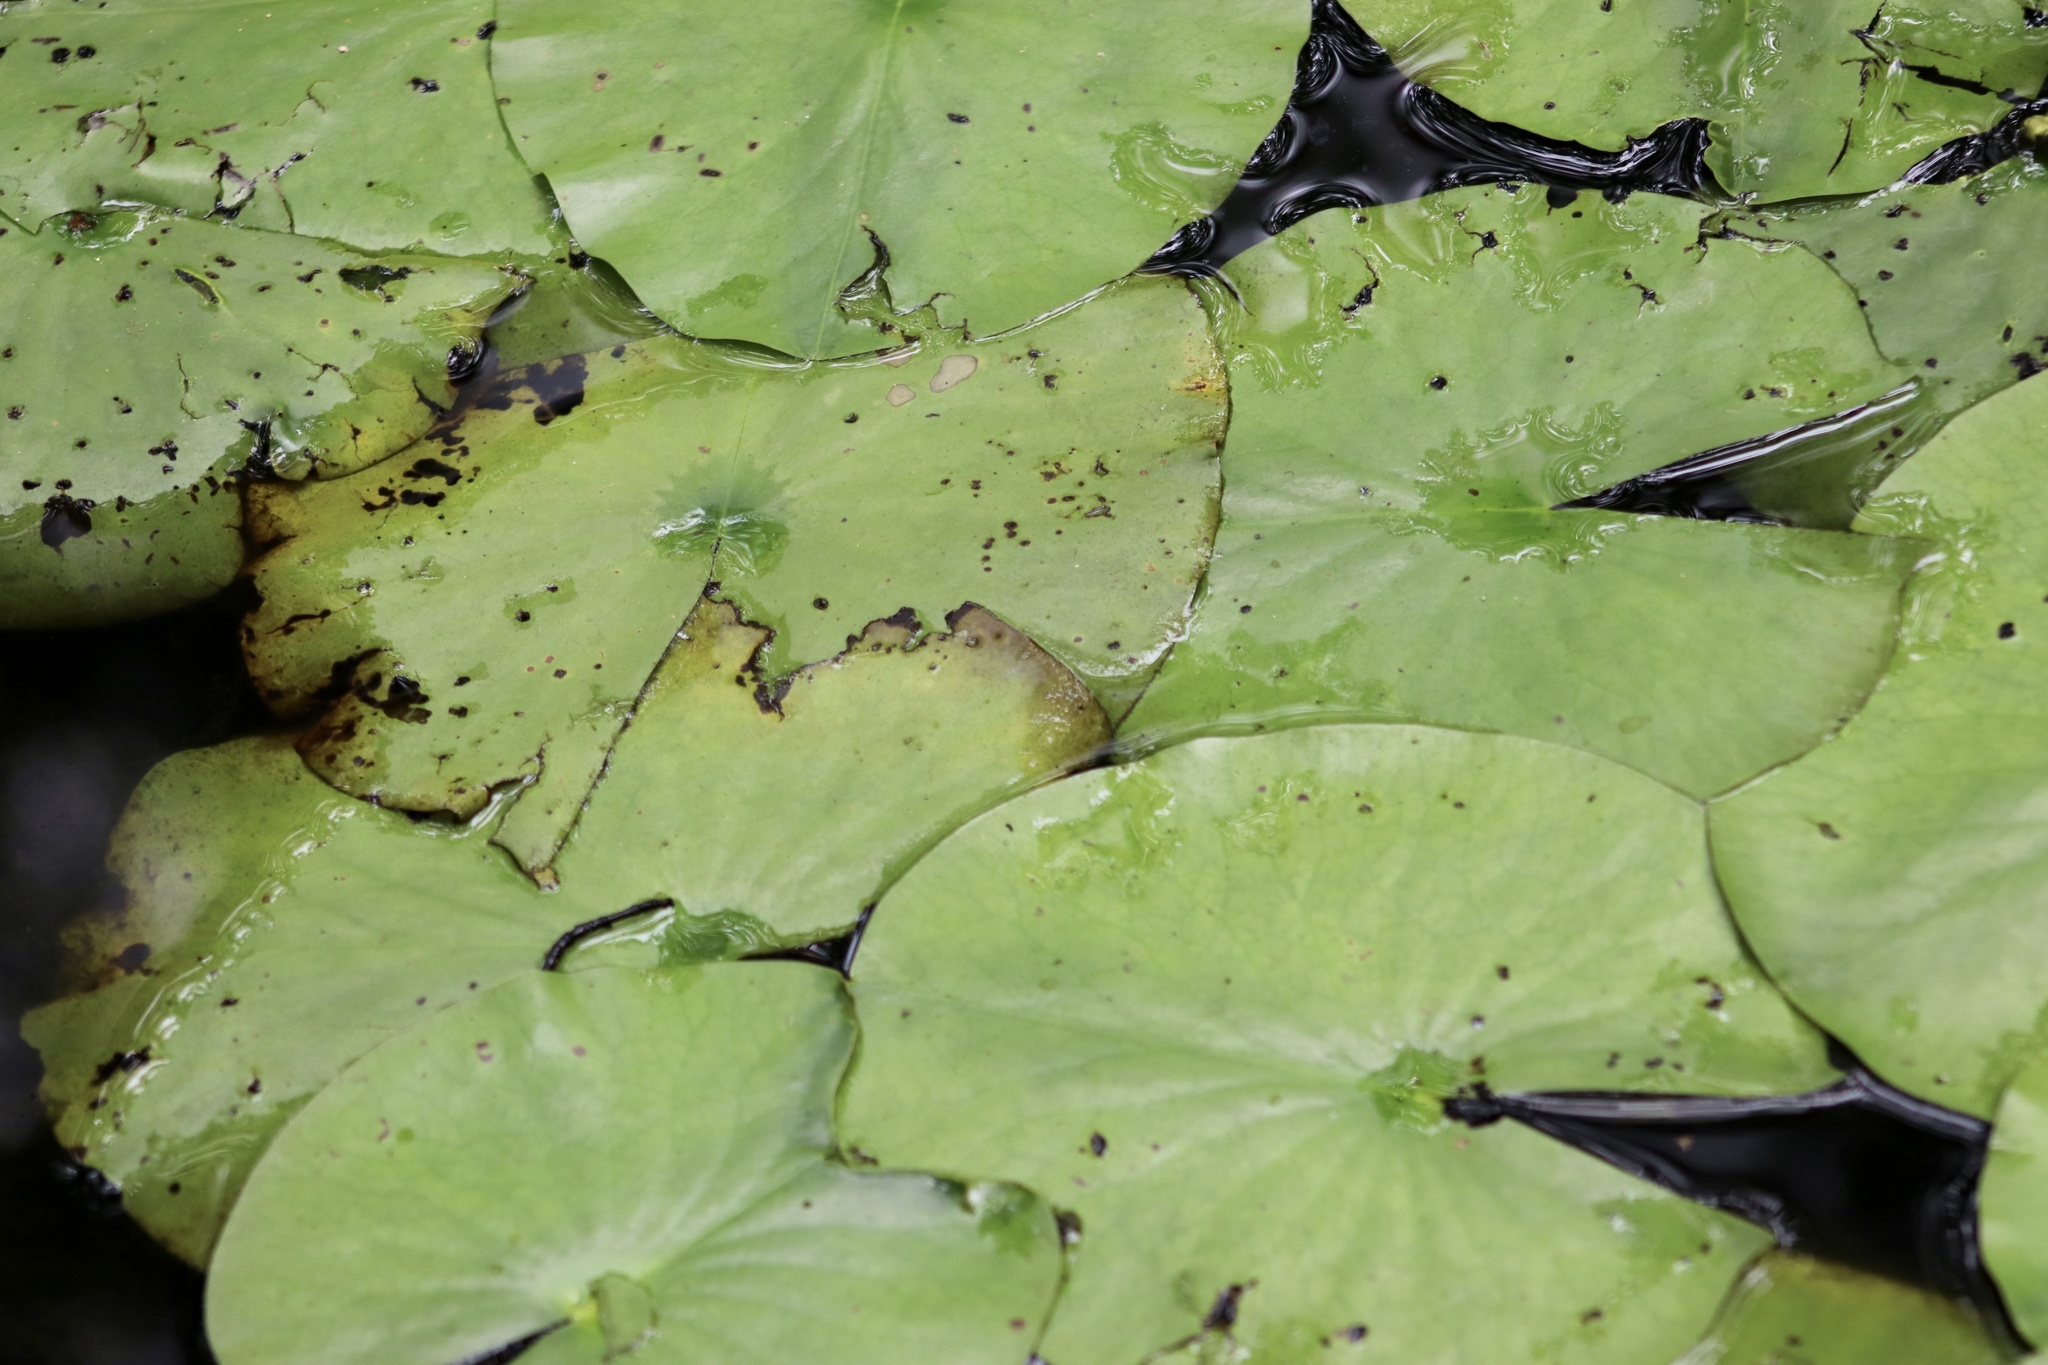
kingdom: Plantae
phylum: Tracheophyta
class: Magnoliopsida
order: Nymphaeales
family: Nymphaeaceae
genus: Nymphaea
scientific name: Nymphaea odorata
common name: Fragrant water-lily
